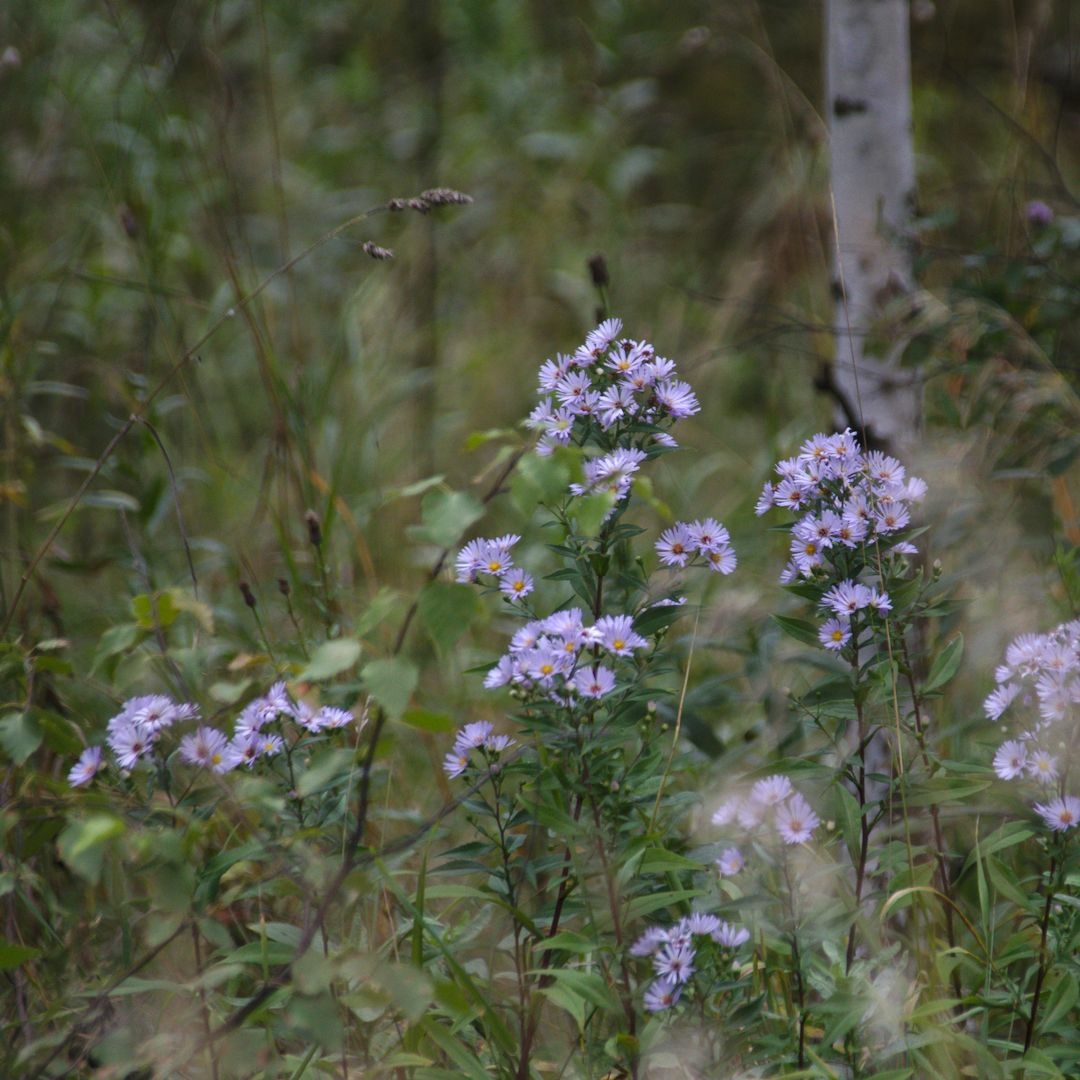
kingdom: Plantae
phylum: Tracheophyta
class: Magnoliopsida
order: Asterales
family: Asteraceae
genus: Symphyotrichum
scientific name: Symphyotrichum
